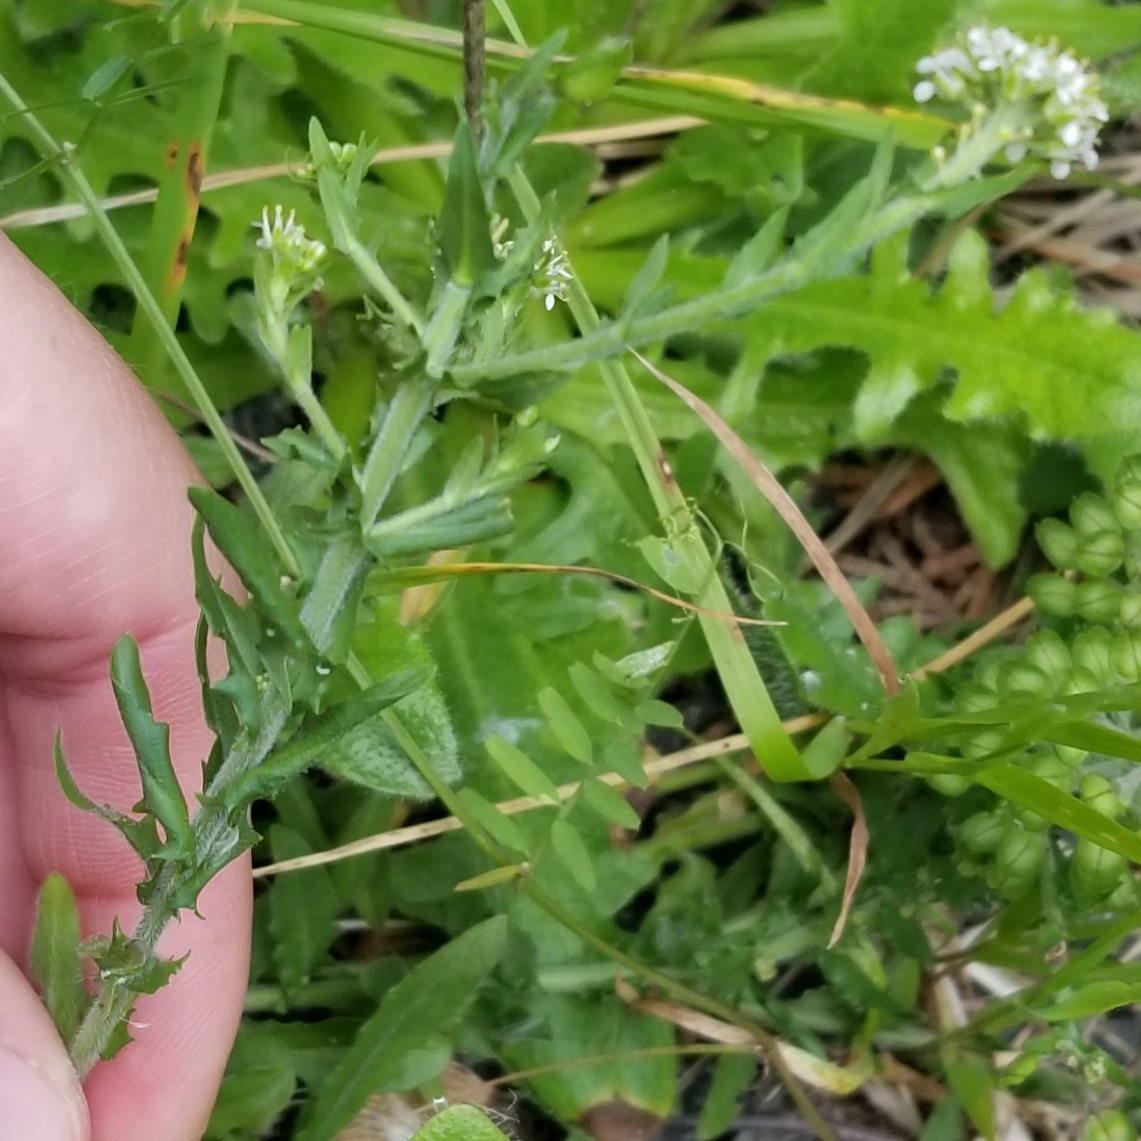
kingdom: Plantae
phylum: Tracheophyta
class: Magnoliopsida
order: Brassicales
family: Brassicaceae
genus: Lepidium
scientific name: Lepidium campestre
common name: Field pepperwort
